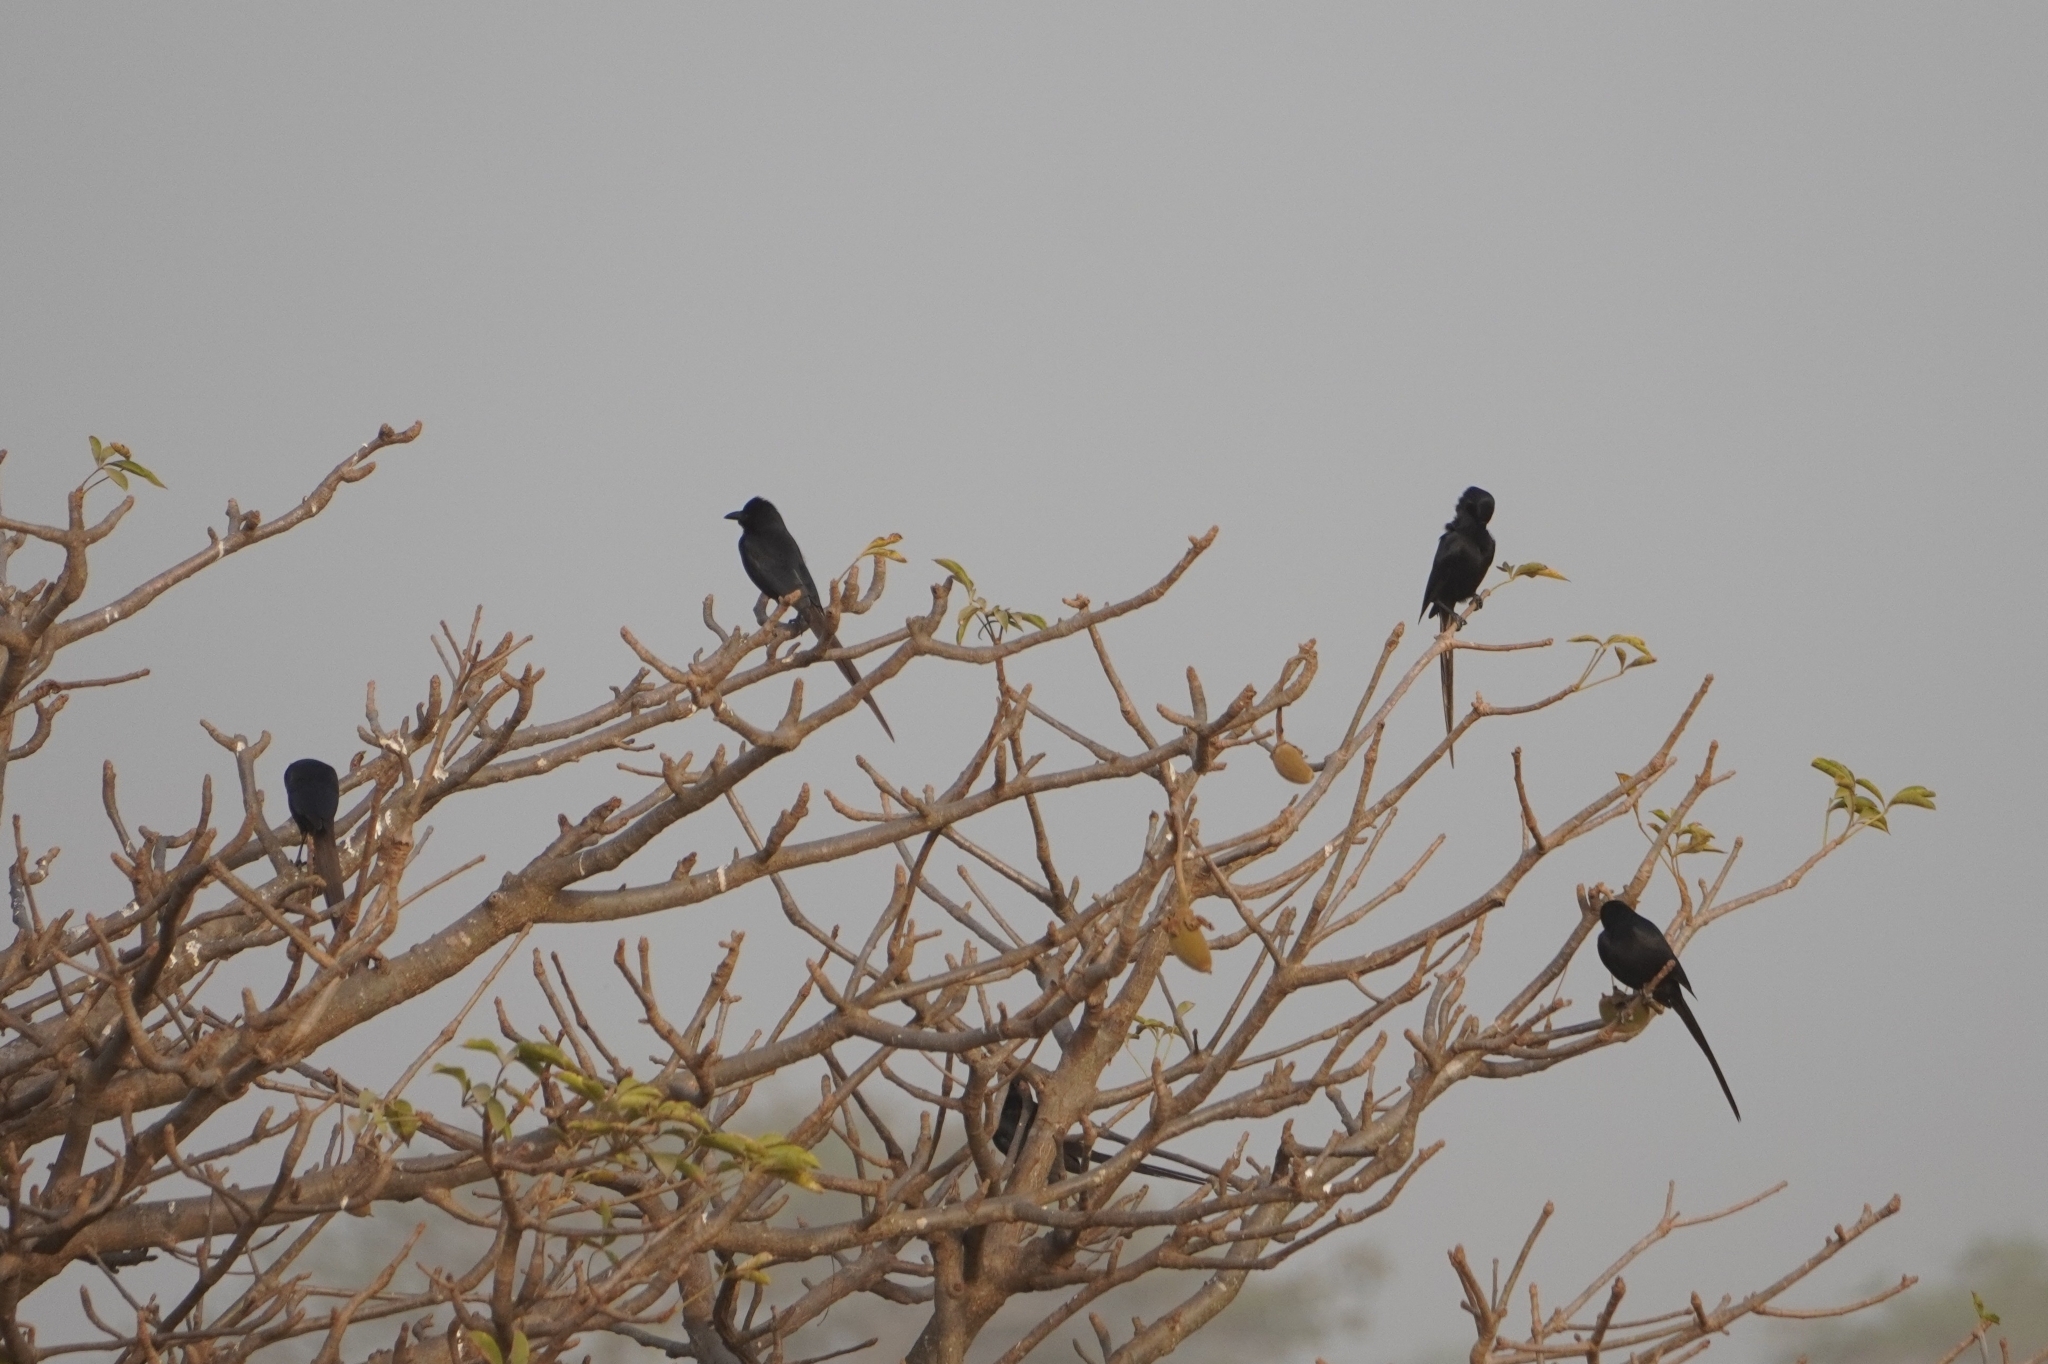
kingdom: Animalia
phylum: Chordata
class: Aves
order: Passeriformes
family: Corvidae
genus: Ptilostomus
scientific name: Ptilostomus afer
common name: Piapiac
